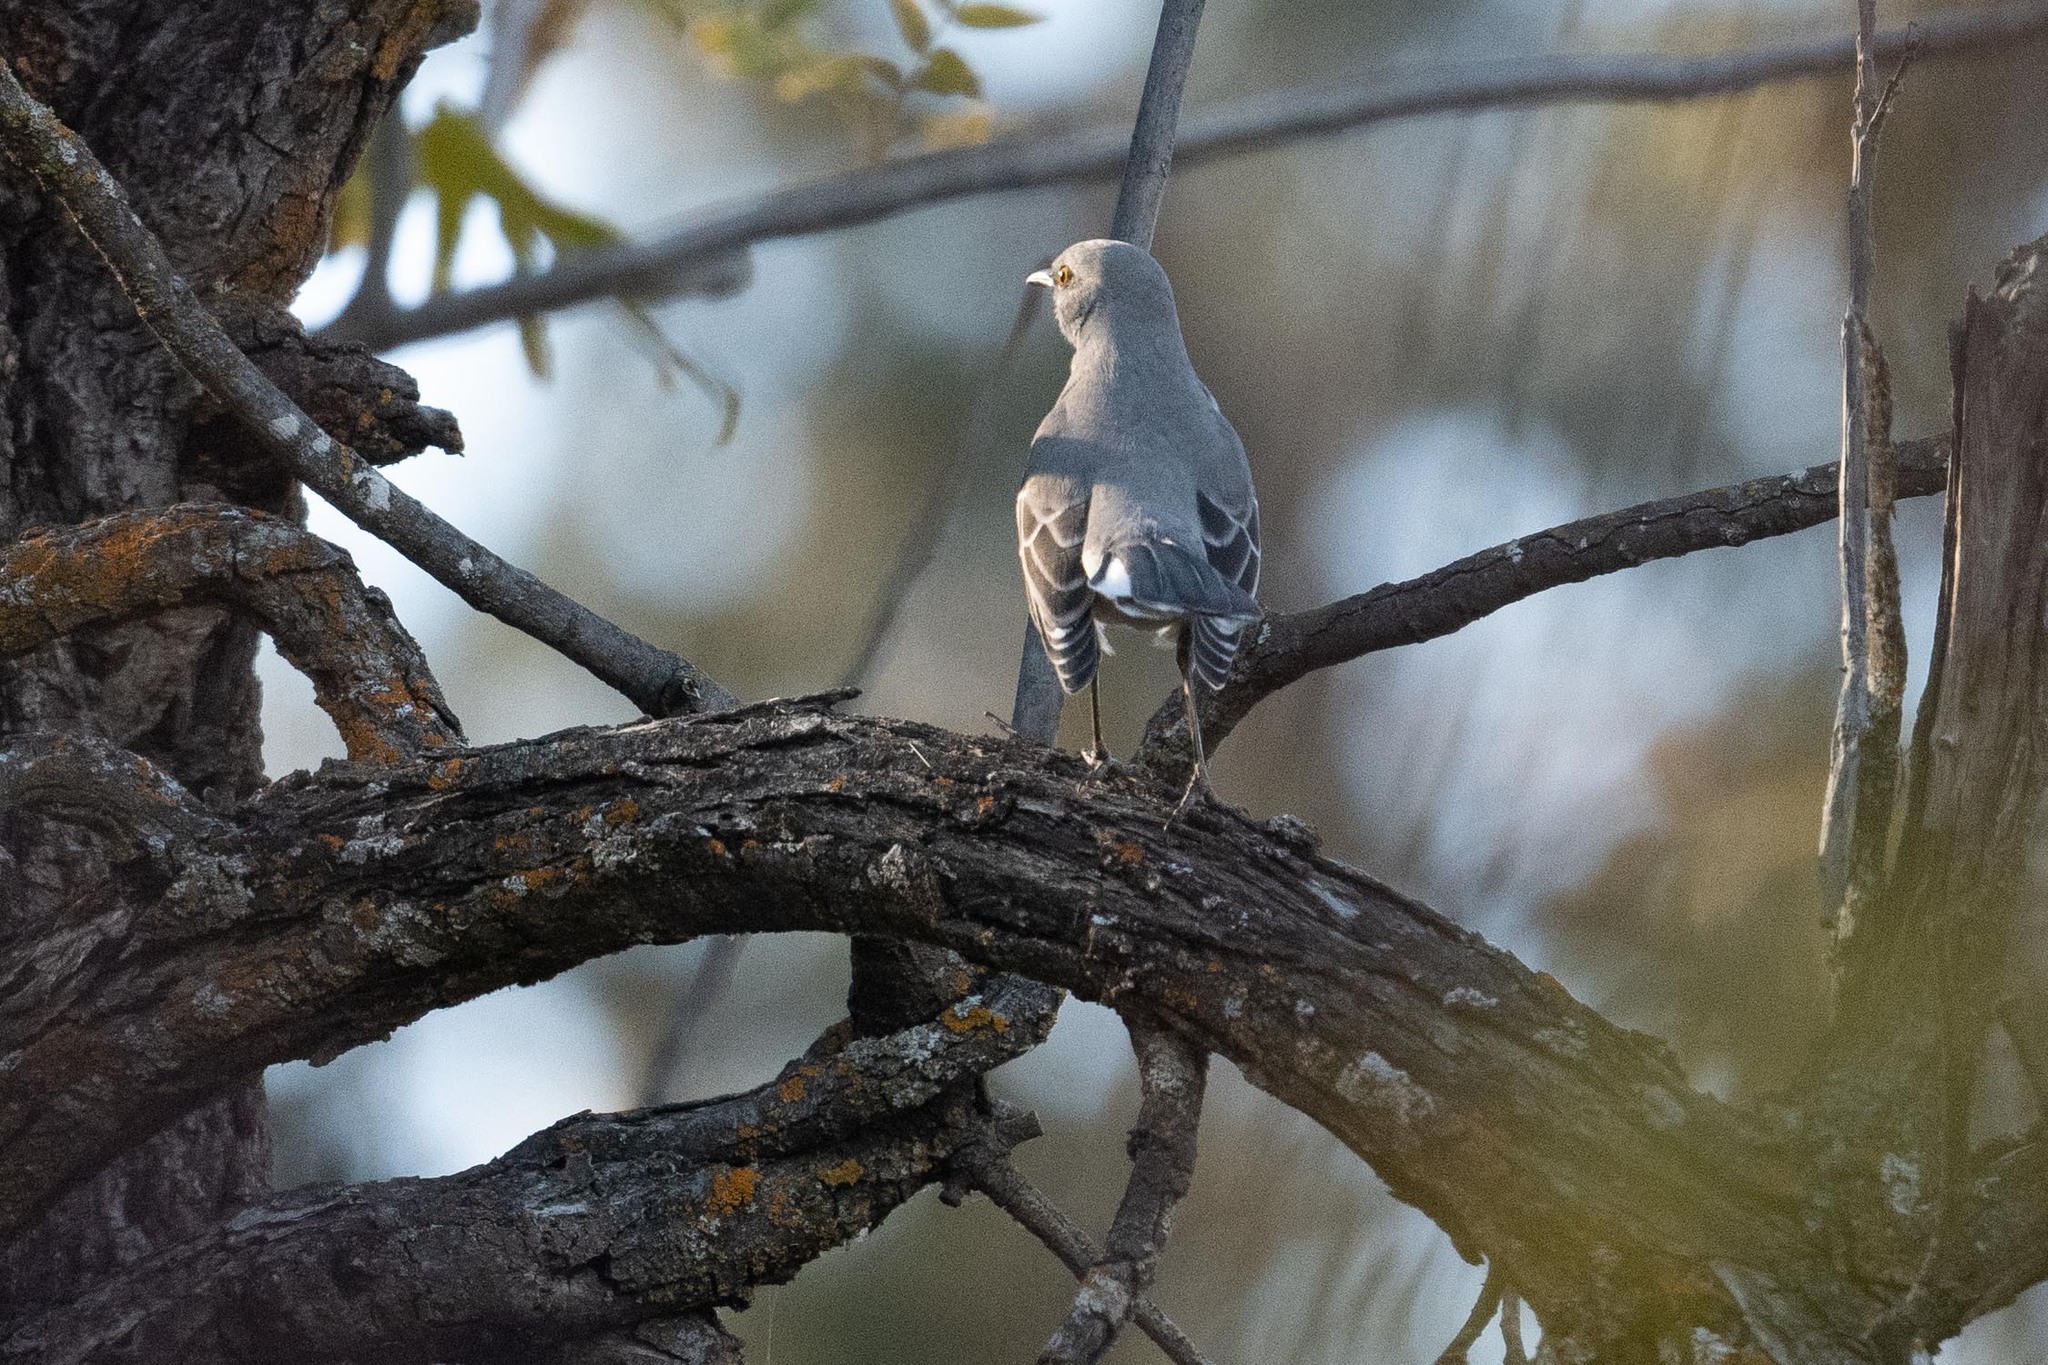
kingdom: Animalia
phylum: Chordata
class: Aves
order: Passeriformes
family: Mimidae
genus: Mimus
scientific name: Mimus polyglottos
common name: Northern mockingbird
